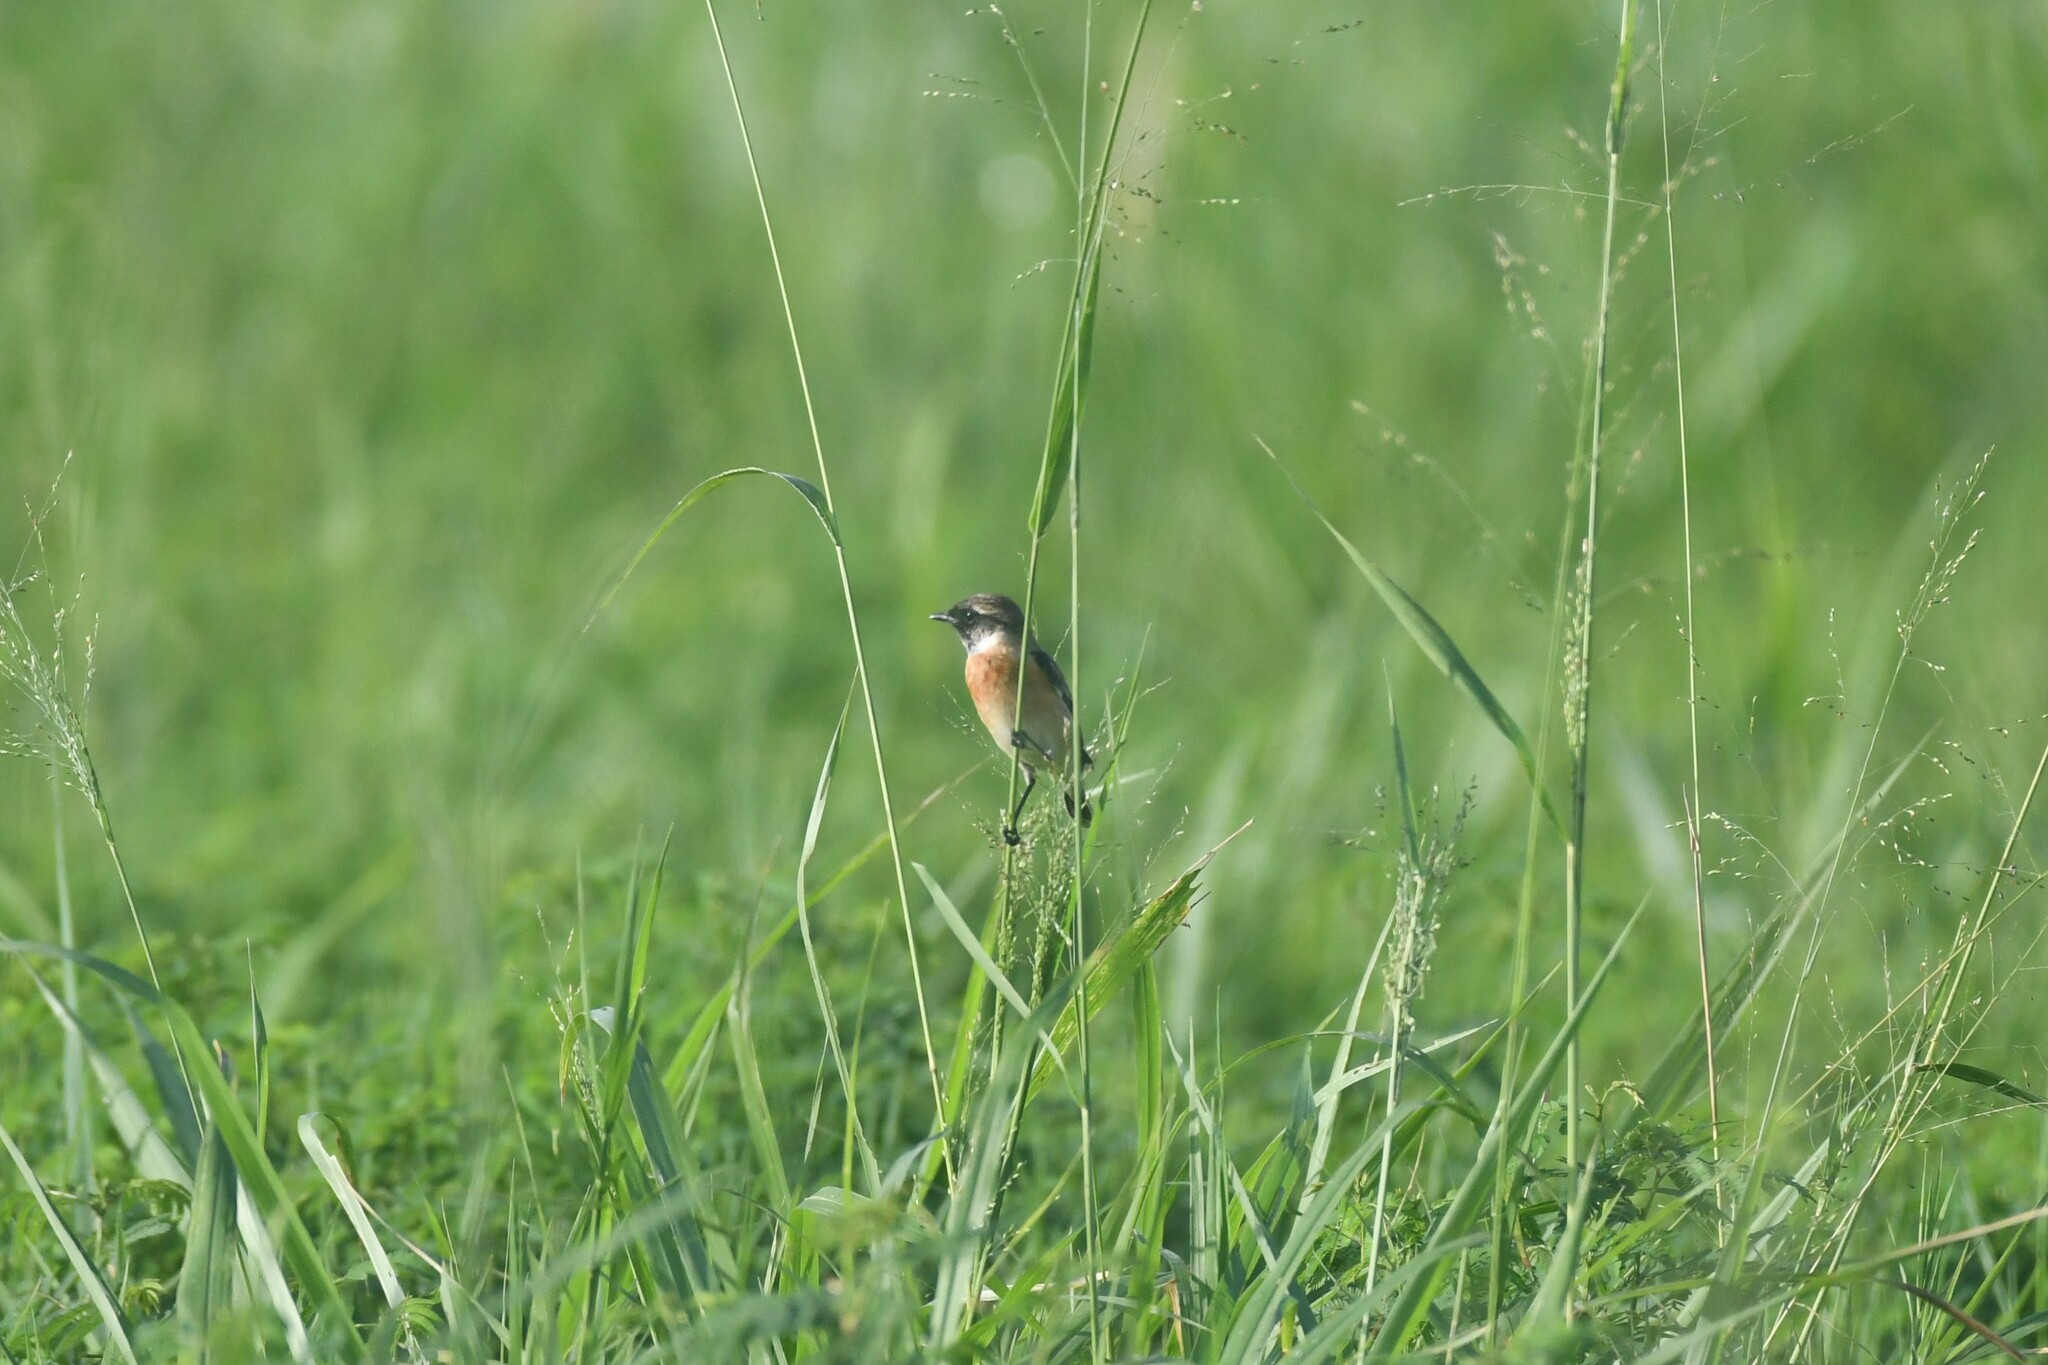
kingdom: Animalia
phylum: Chordata
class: Aves
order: Passeriformes
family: Muscicapidae
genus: Saxicola
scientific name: Saxicola stejnegeri
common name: Stejneger's stonechat
